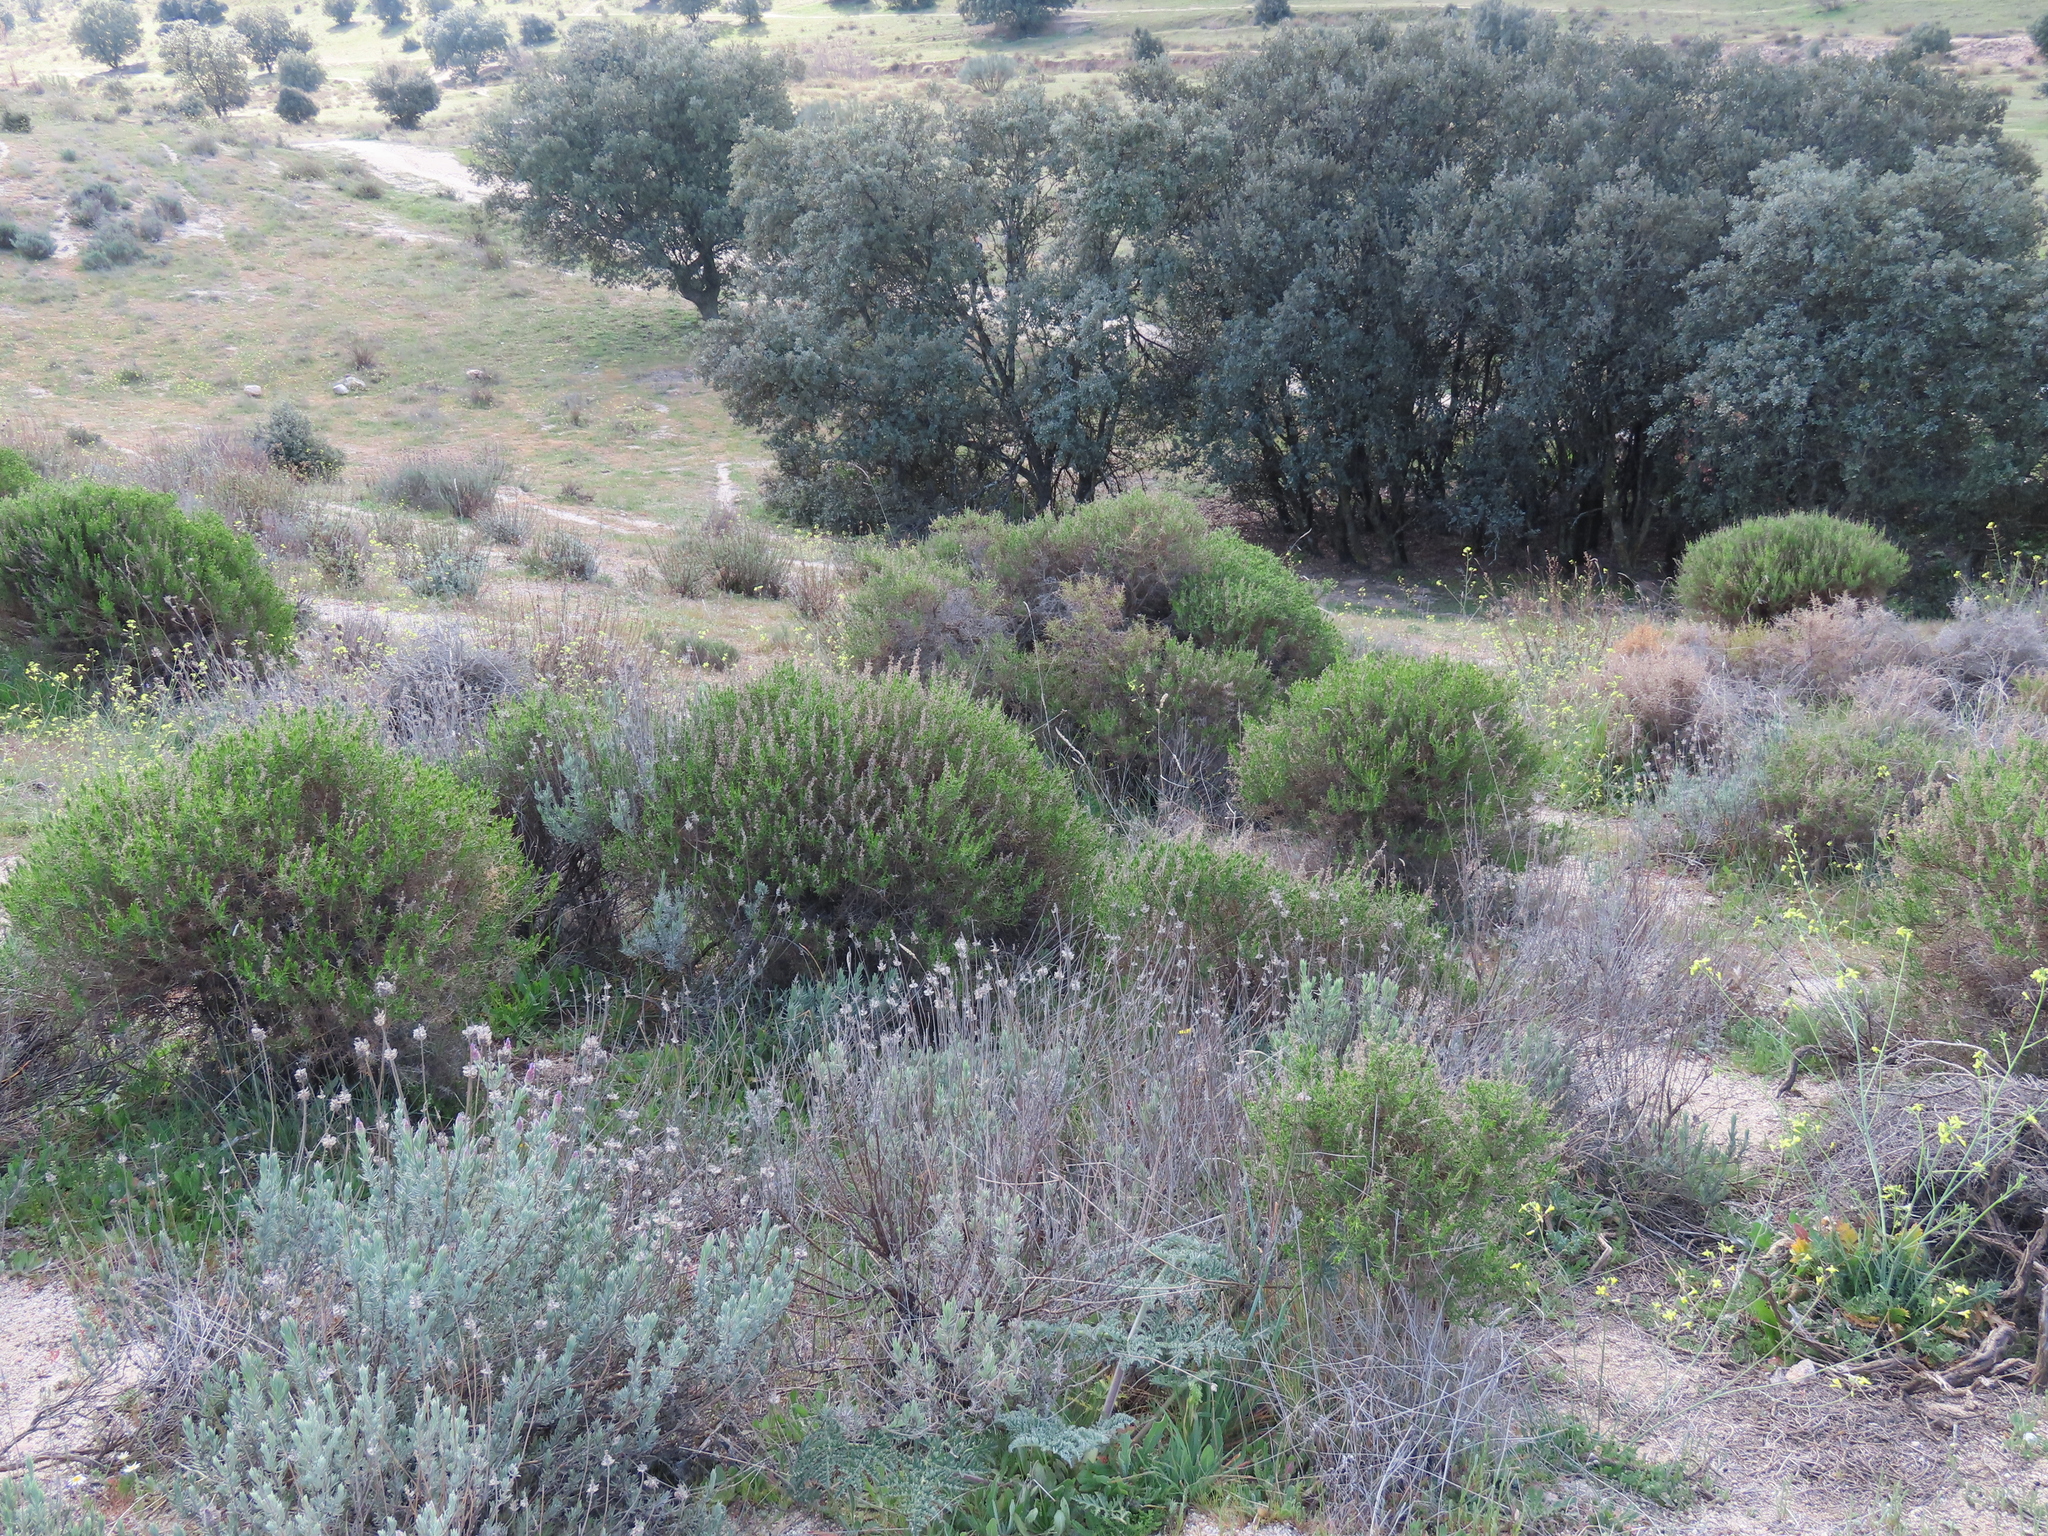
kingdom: Plantae
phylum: Tracheophyta
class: Magnoliopsida
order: Fabales
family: Fabaceae
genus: Genista
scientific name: Genista hirsuta
